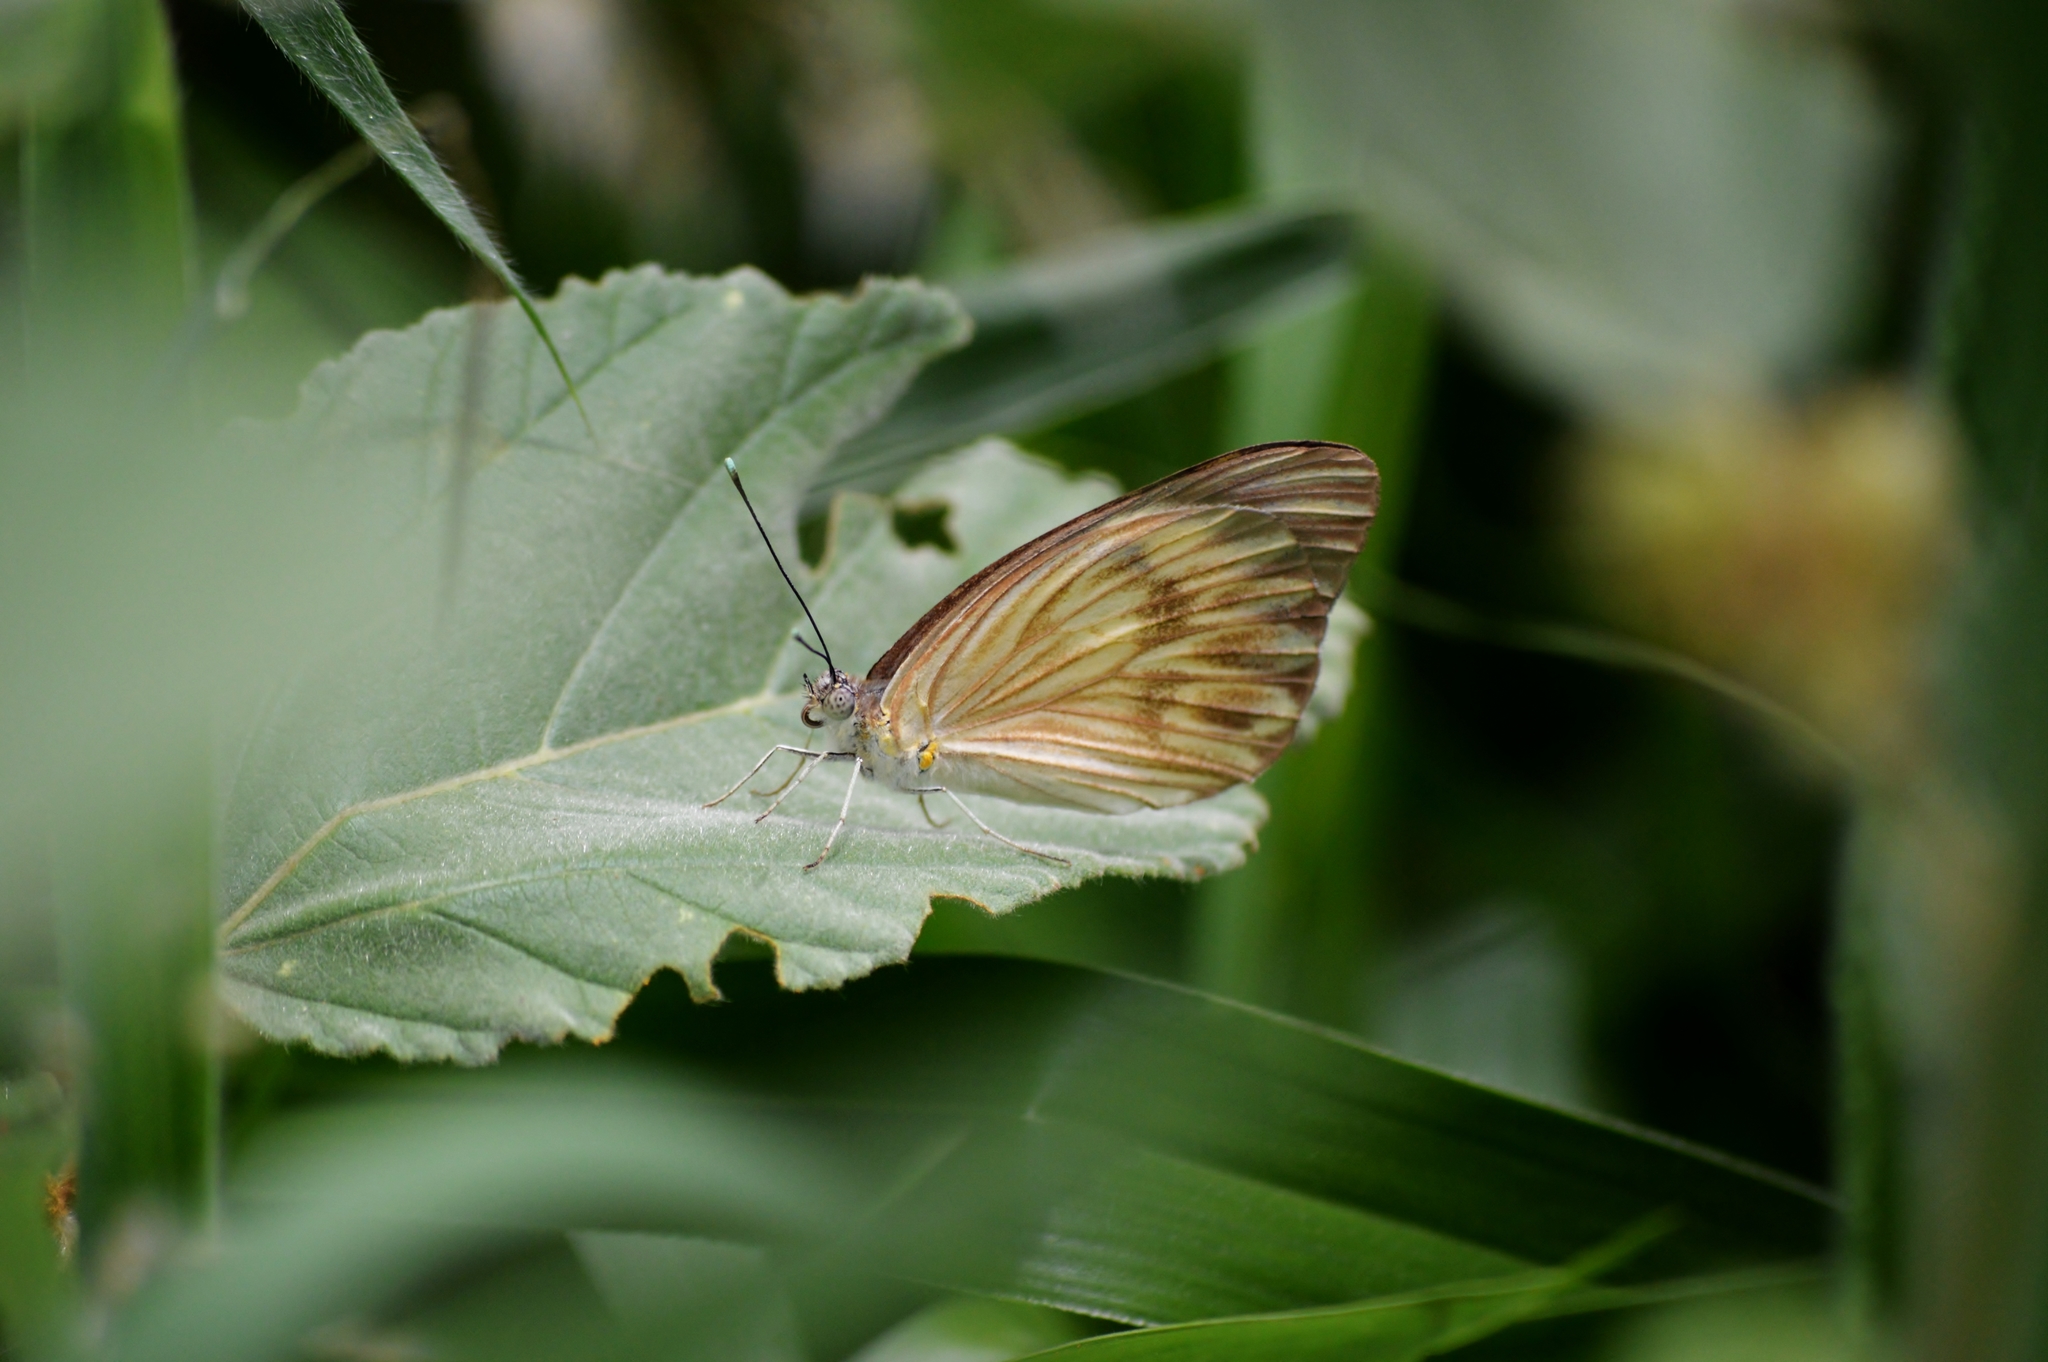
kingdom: Animalia
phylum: Arthropoda
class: Insecta
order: Lepidoptera
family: Pieridae
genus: Ascia
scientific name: Ascia monuste
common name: Great southern white
